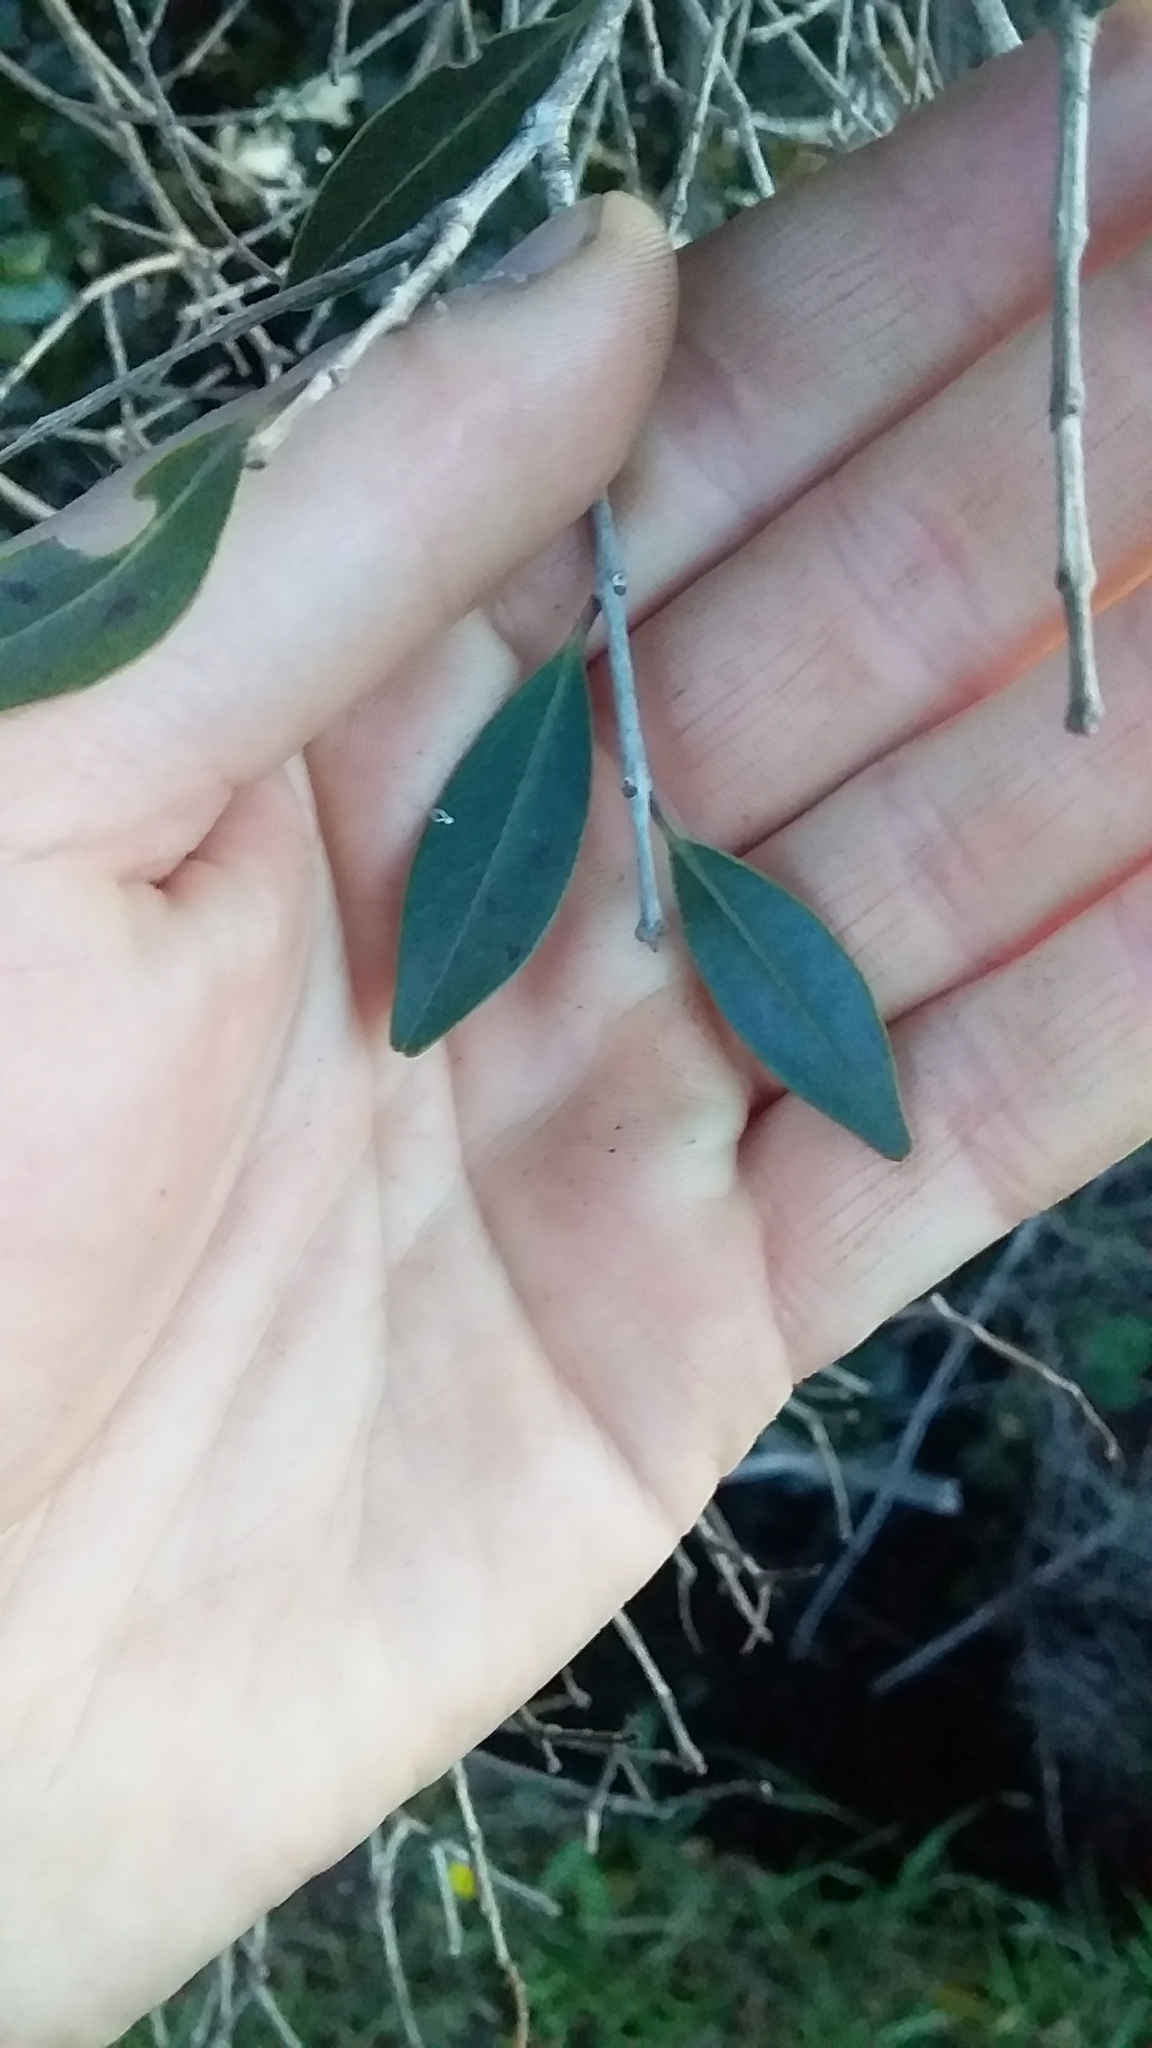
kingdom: Plantae
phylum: Tracheophyta
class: Magnoliopsida
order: Myrtales
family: Myrtaceae
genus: Metrosideros
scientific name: Metrosideros robusta
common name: Northern rata
